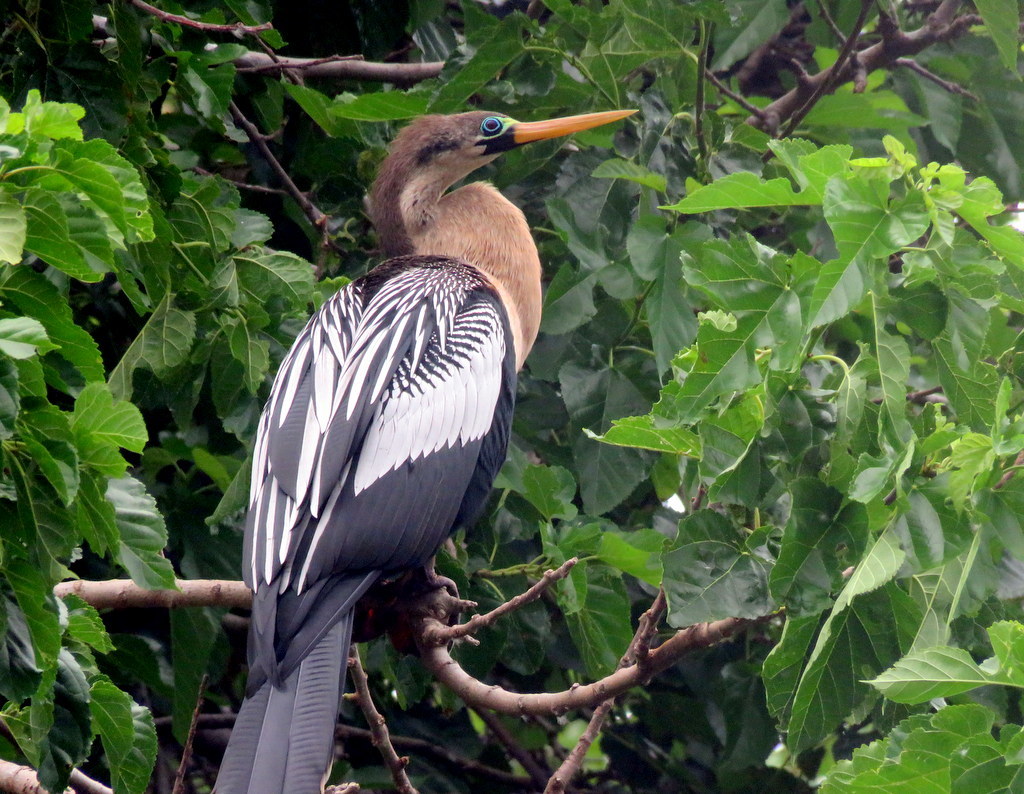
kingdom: Animalia
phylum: Chordata
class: Aves
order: Suliformes
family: Anhingidae
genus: Anhinga
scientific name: Anhinga anhinga
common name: Anhinga
